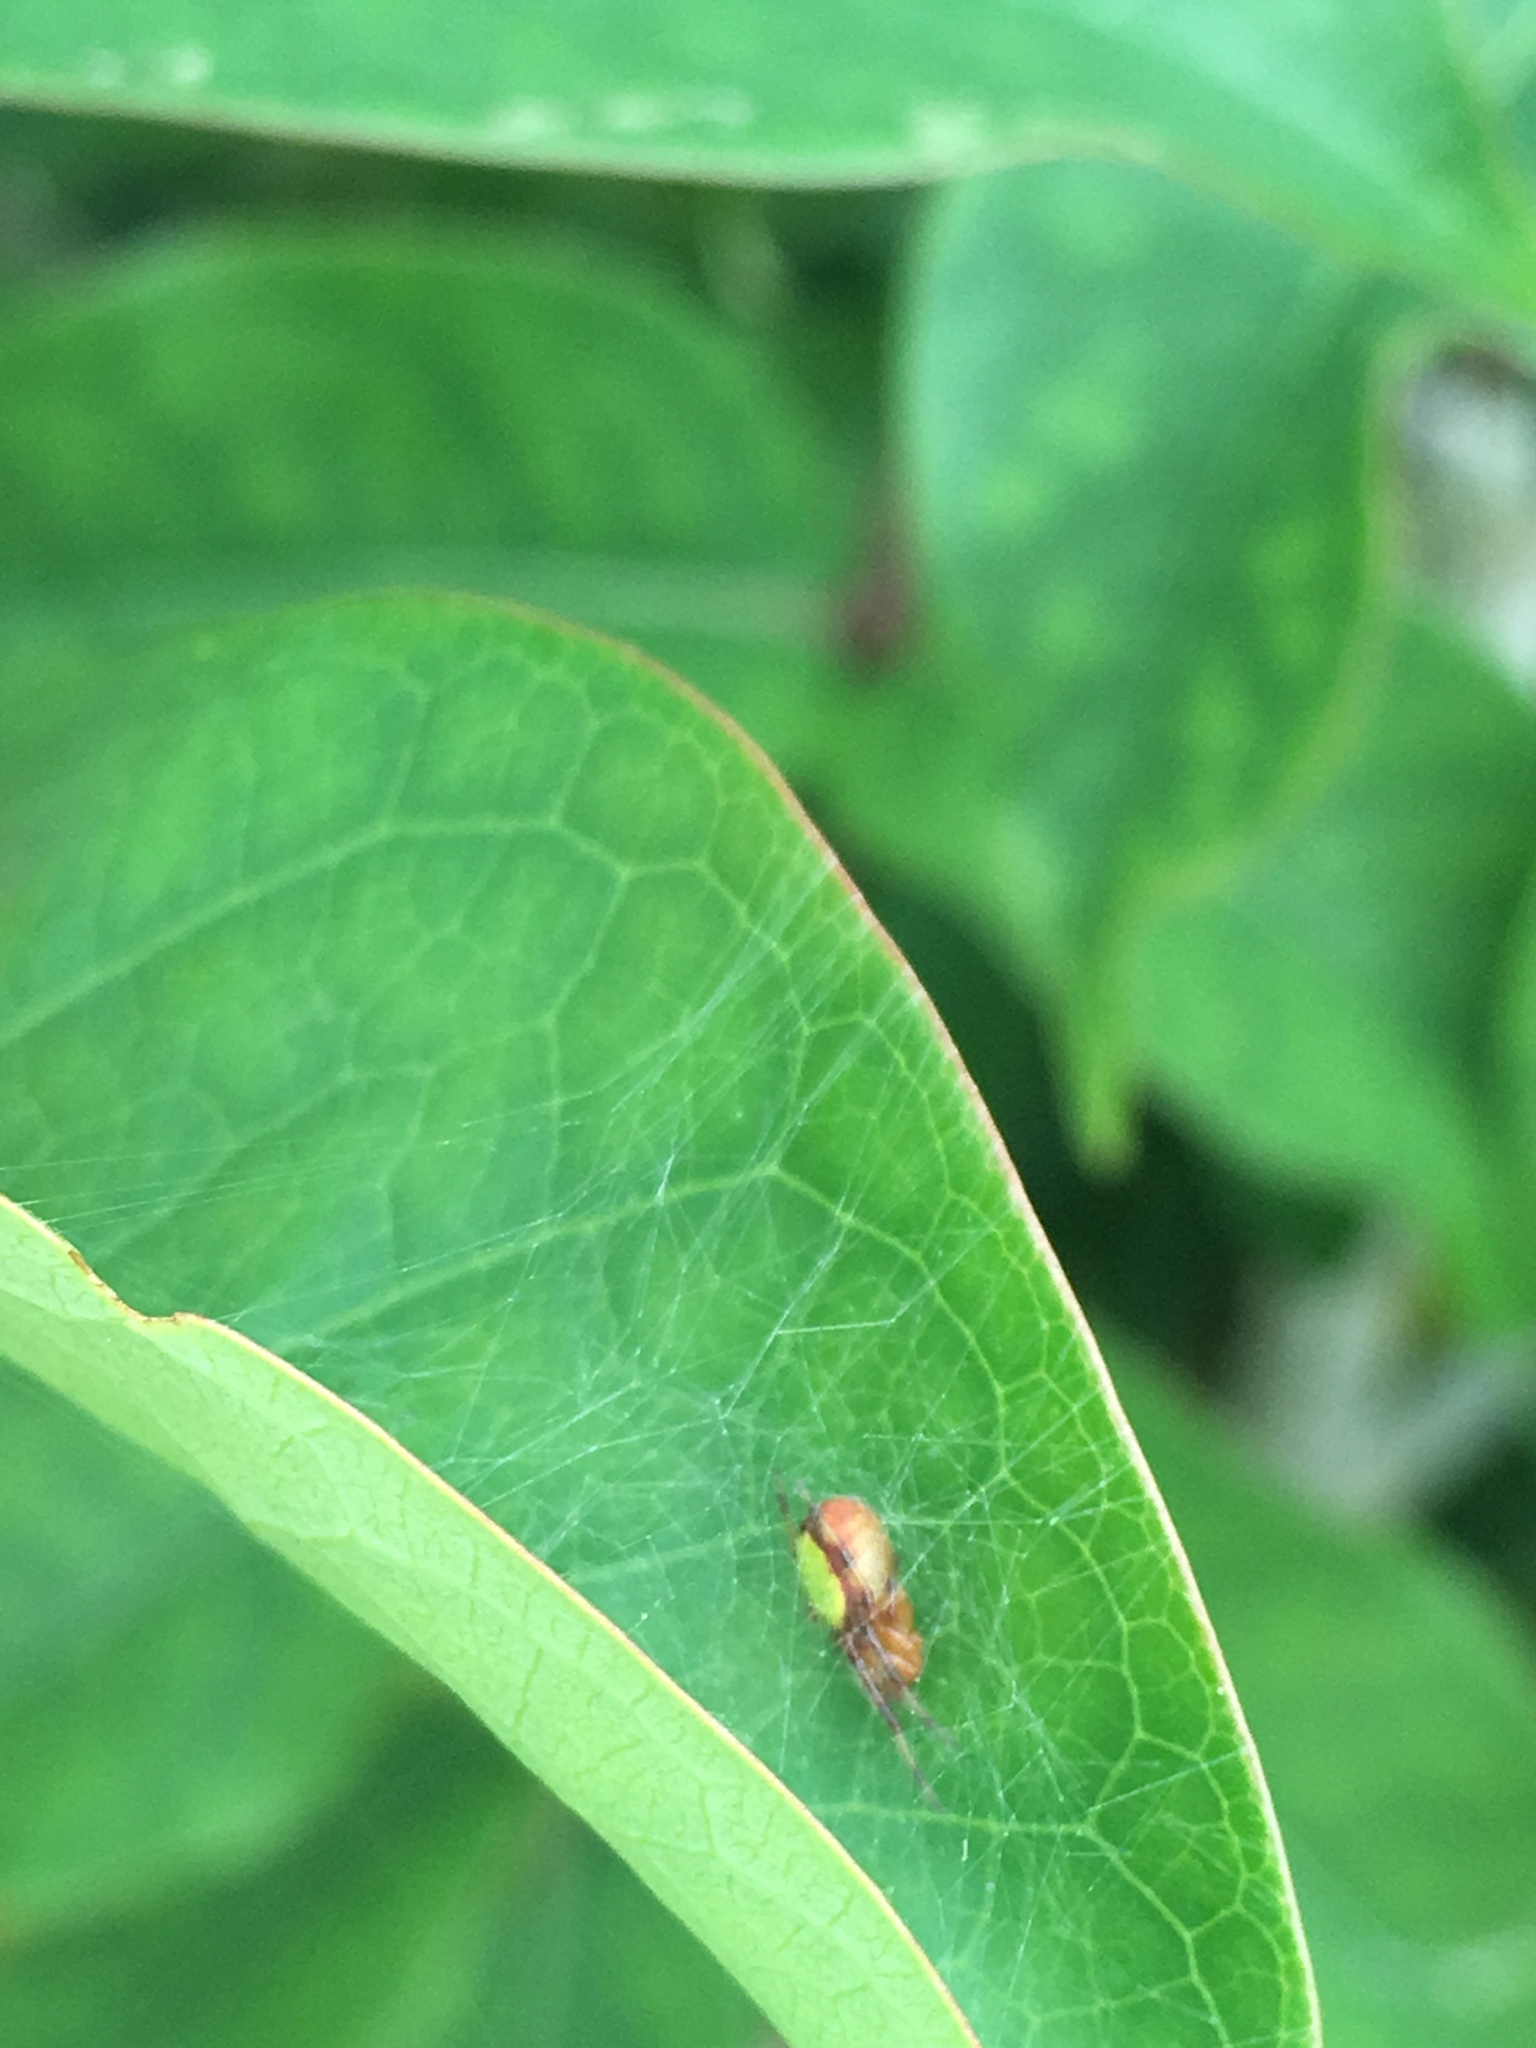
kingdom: Animalia
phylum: Arthropoda
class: Arachnida
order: Araneae
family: Araneidae
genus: Eriophora
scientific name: Eriophora ravilla
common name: Orb weavers
